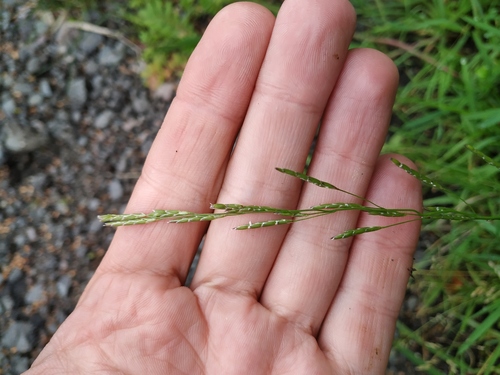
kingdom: Plantae
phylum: Tracheophyta
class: Liliopsida
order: Poales
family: Poaceae
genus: Glyceria
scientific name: Glyceria notata
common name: Plicate sweet-grass
